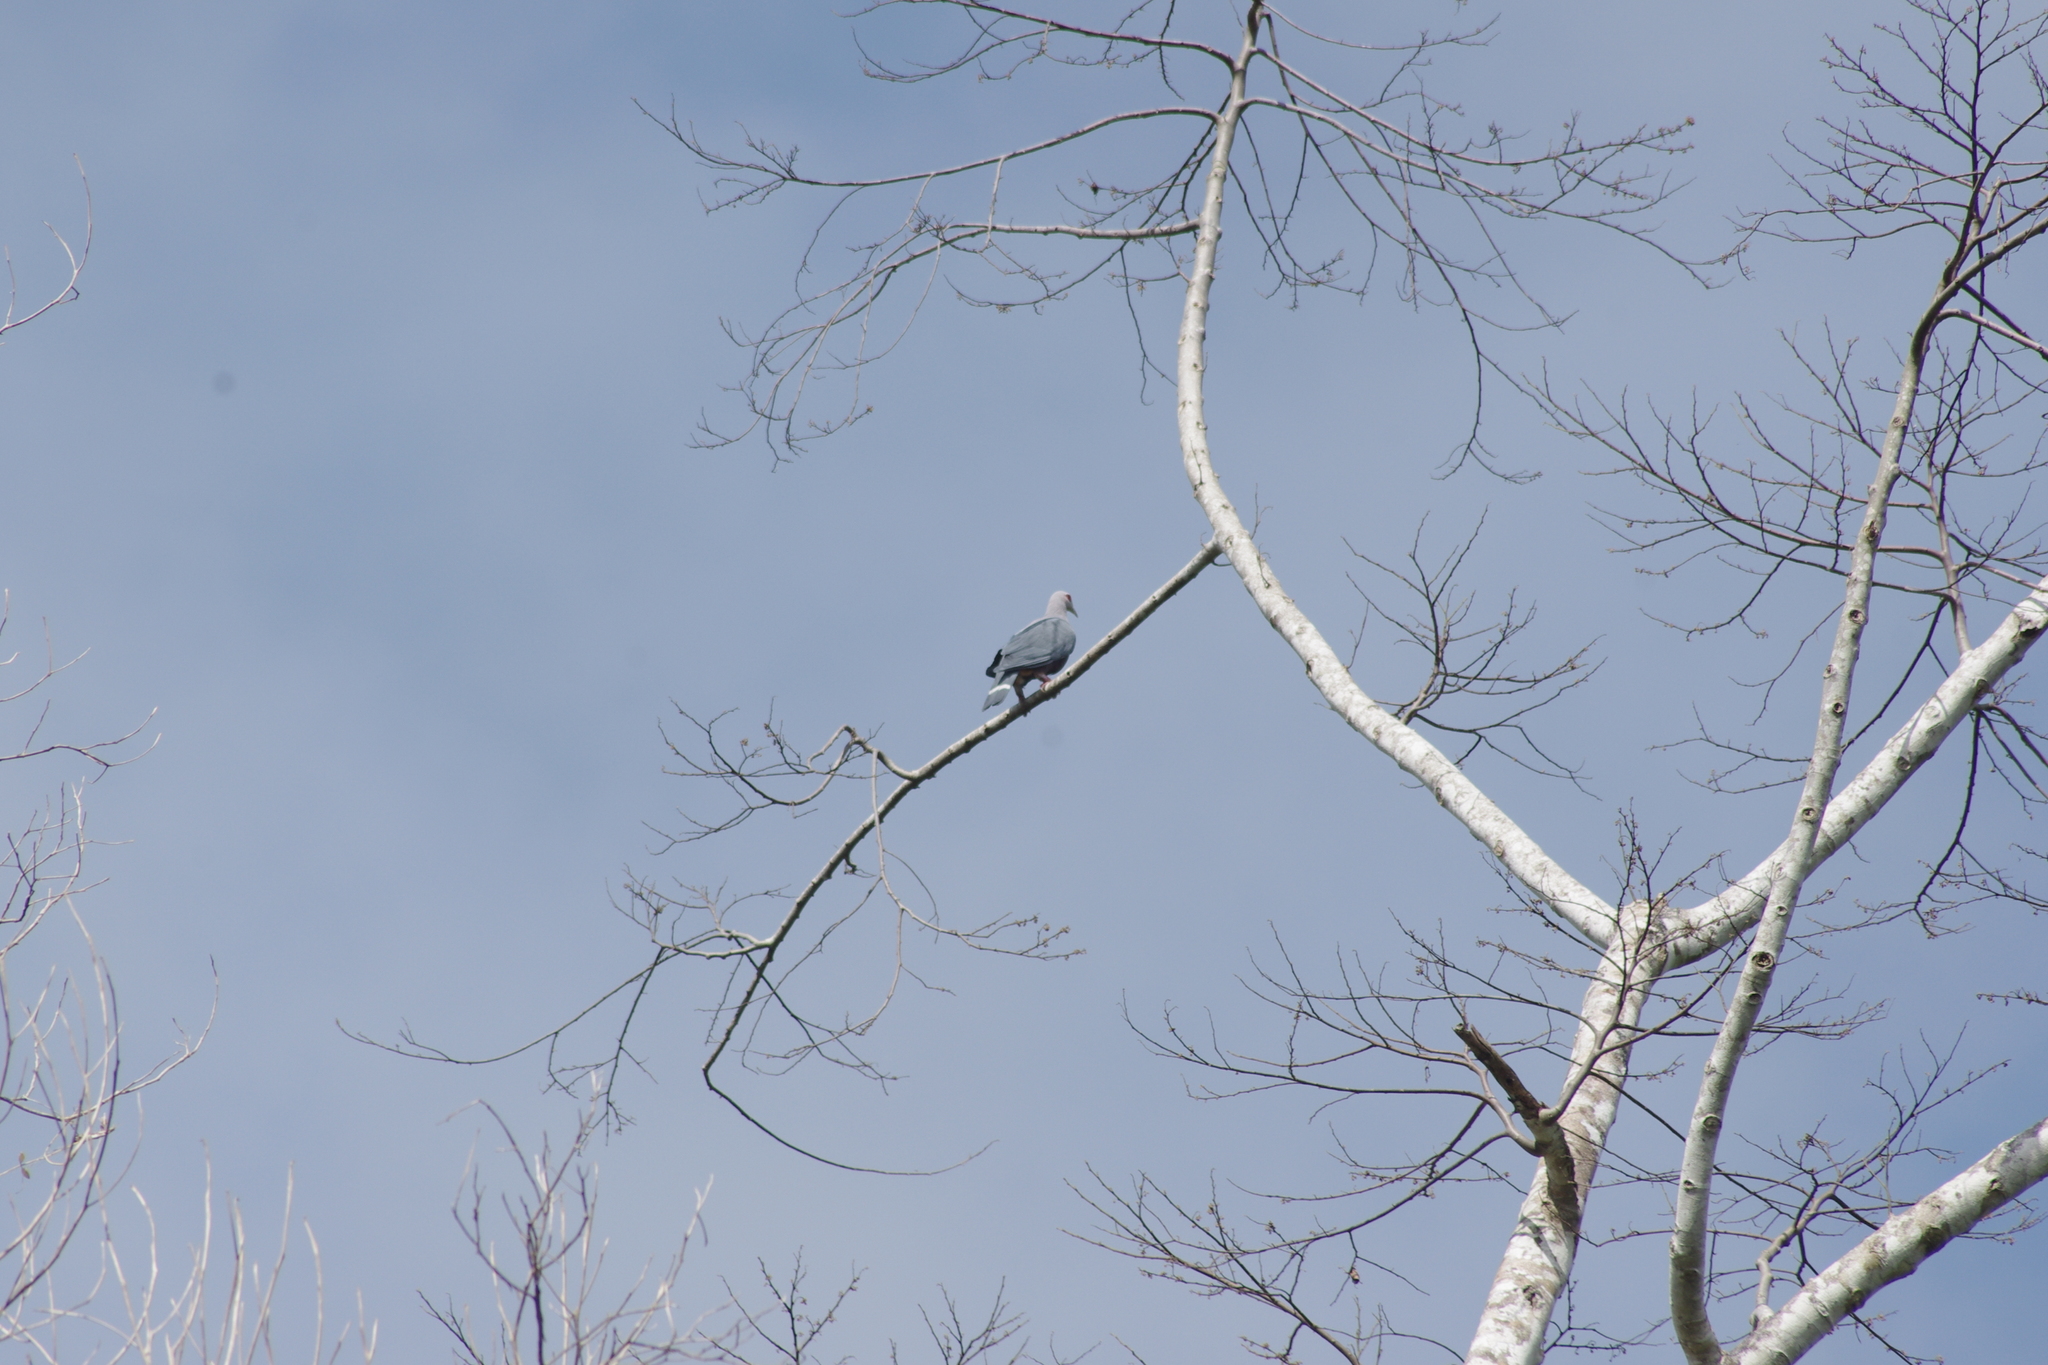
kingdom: Animalia
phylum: Chordata
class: Aves
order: Columbiformes
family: Columbidae
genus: Ducula
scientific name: Ducula pinon
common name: Pinon's imperial pigeon
